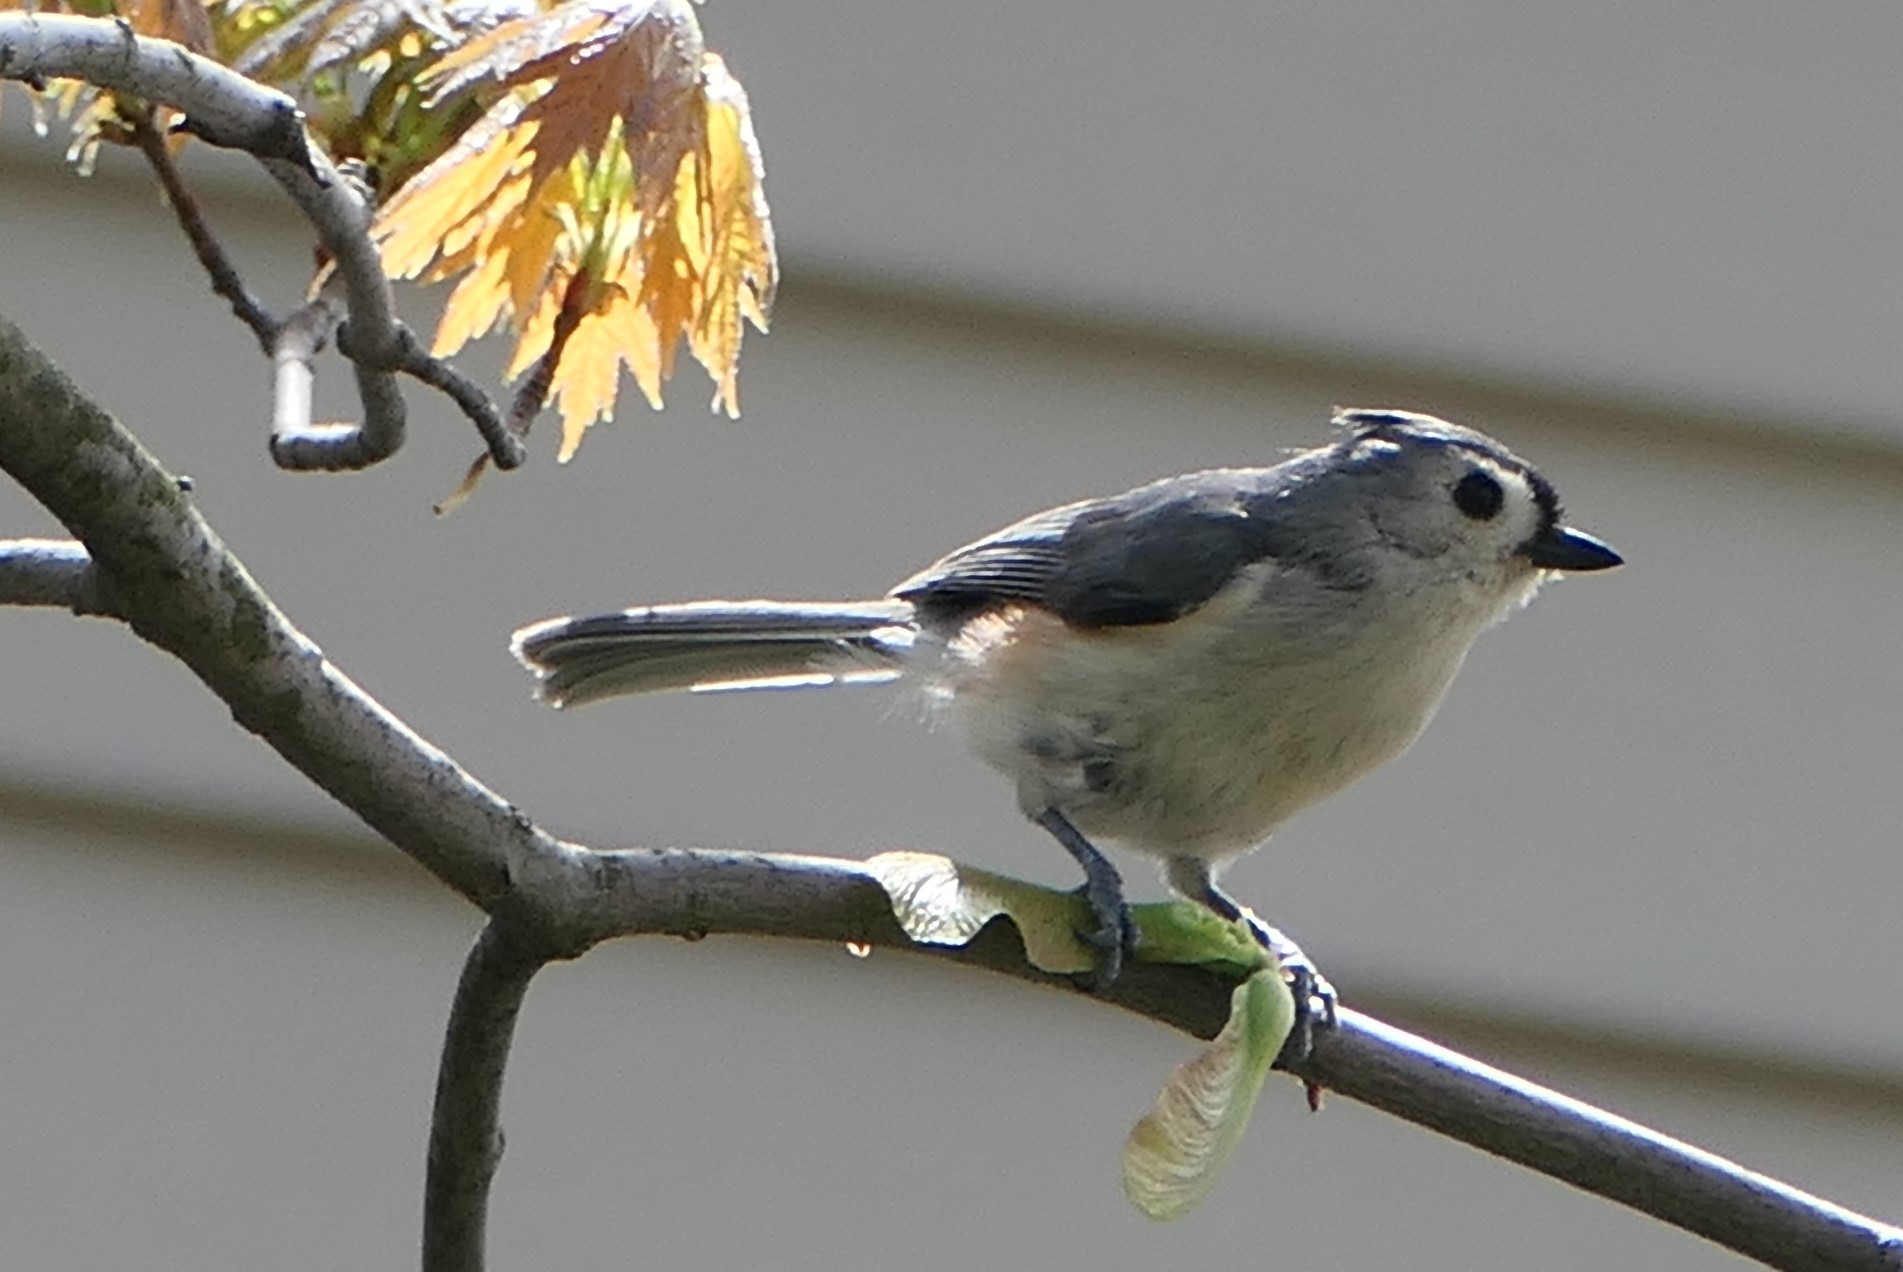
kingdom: Animalia
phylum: Chordata
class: Aves
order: Passeriformes
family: Paridae
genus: Baeolophus
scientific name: Baeolophus bicolor
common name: Tufted titmouse
